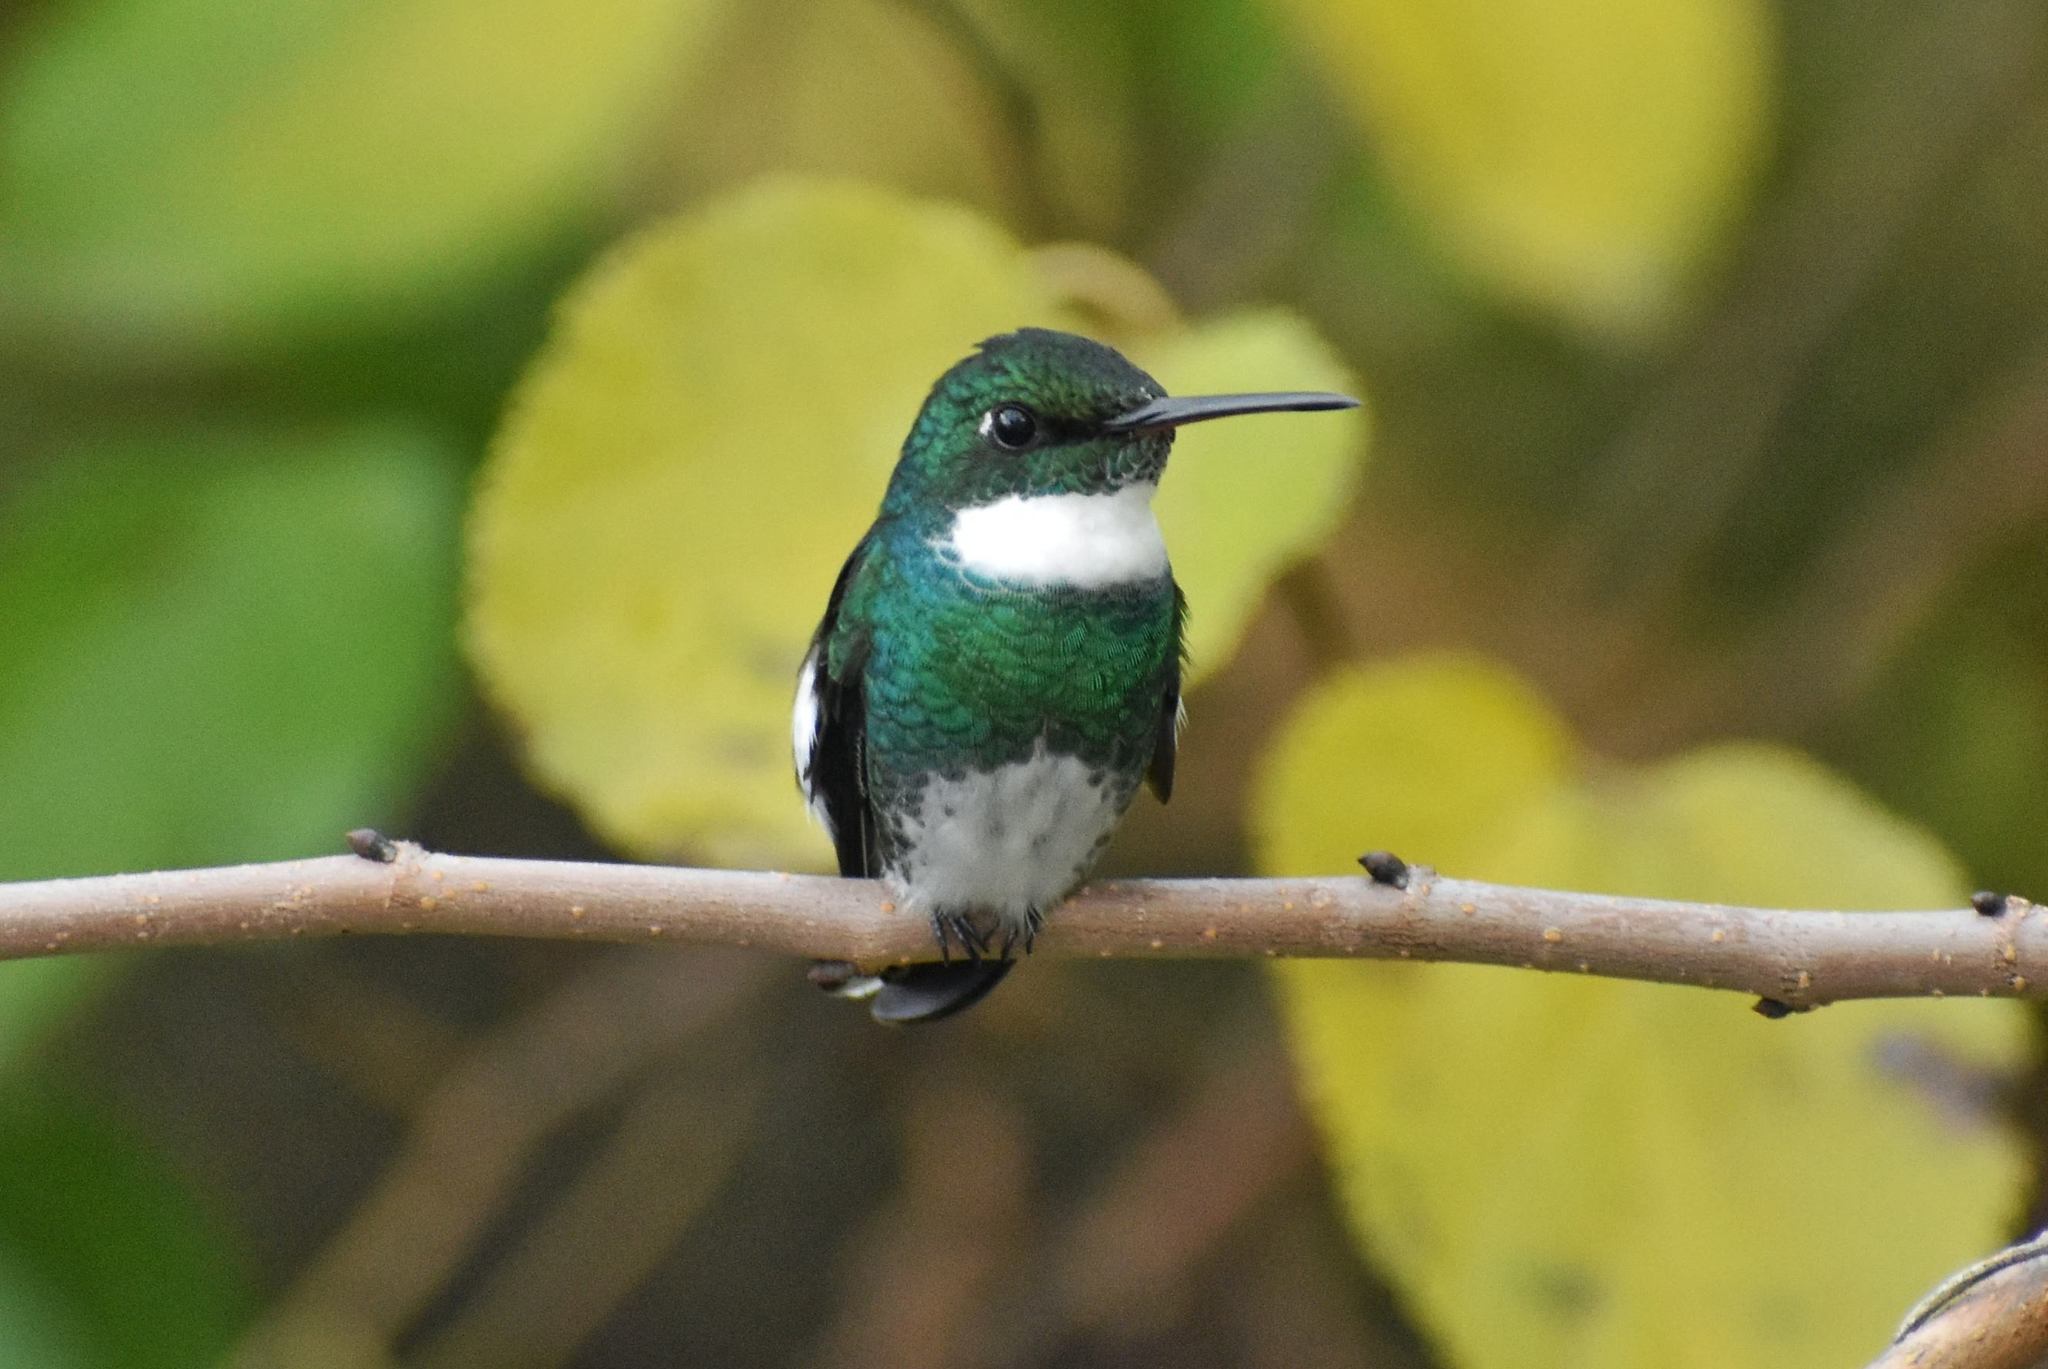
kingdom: Animalia
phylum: Chordata
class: Aves
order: Apodiformes
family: Trochilidae
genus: Leucochloris
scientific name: Leucochloris albicollis
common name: White-throated hummingbird
